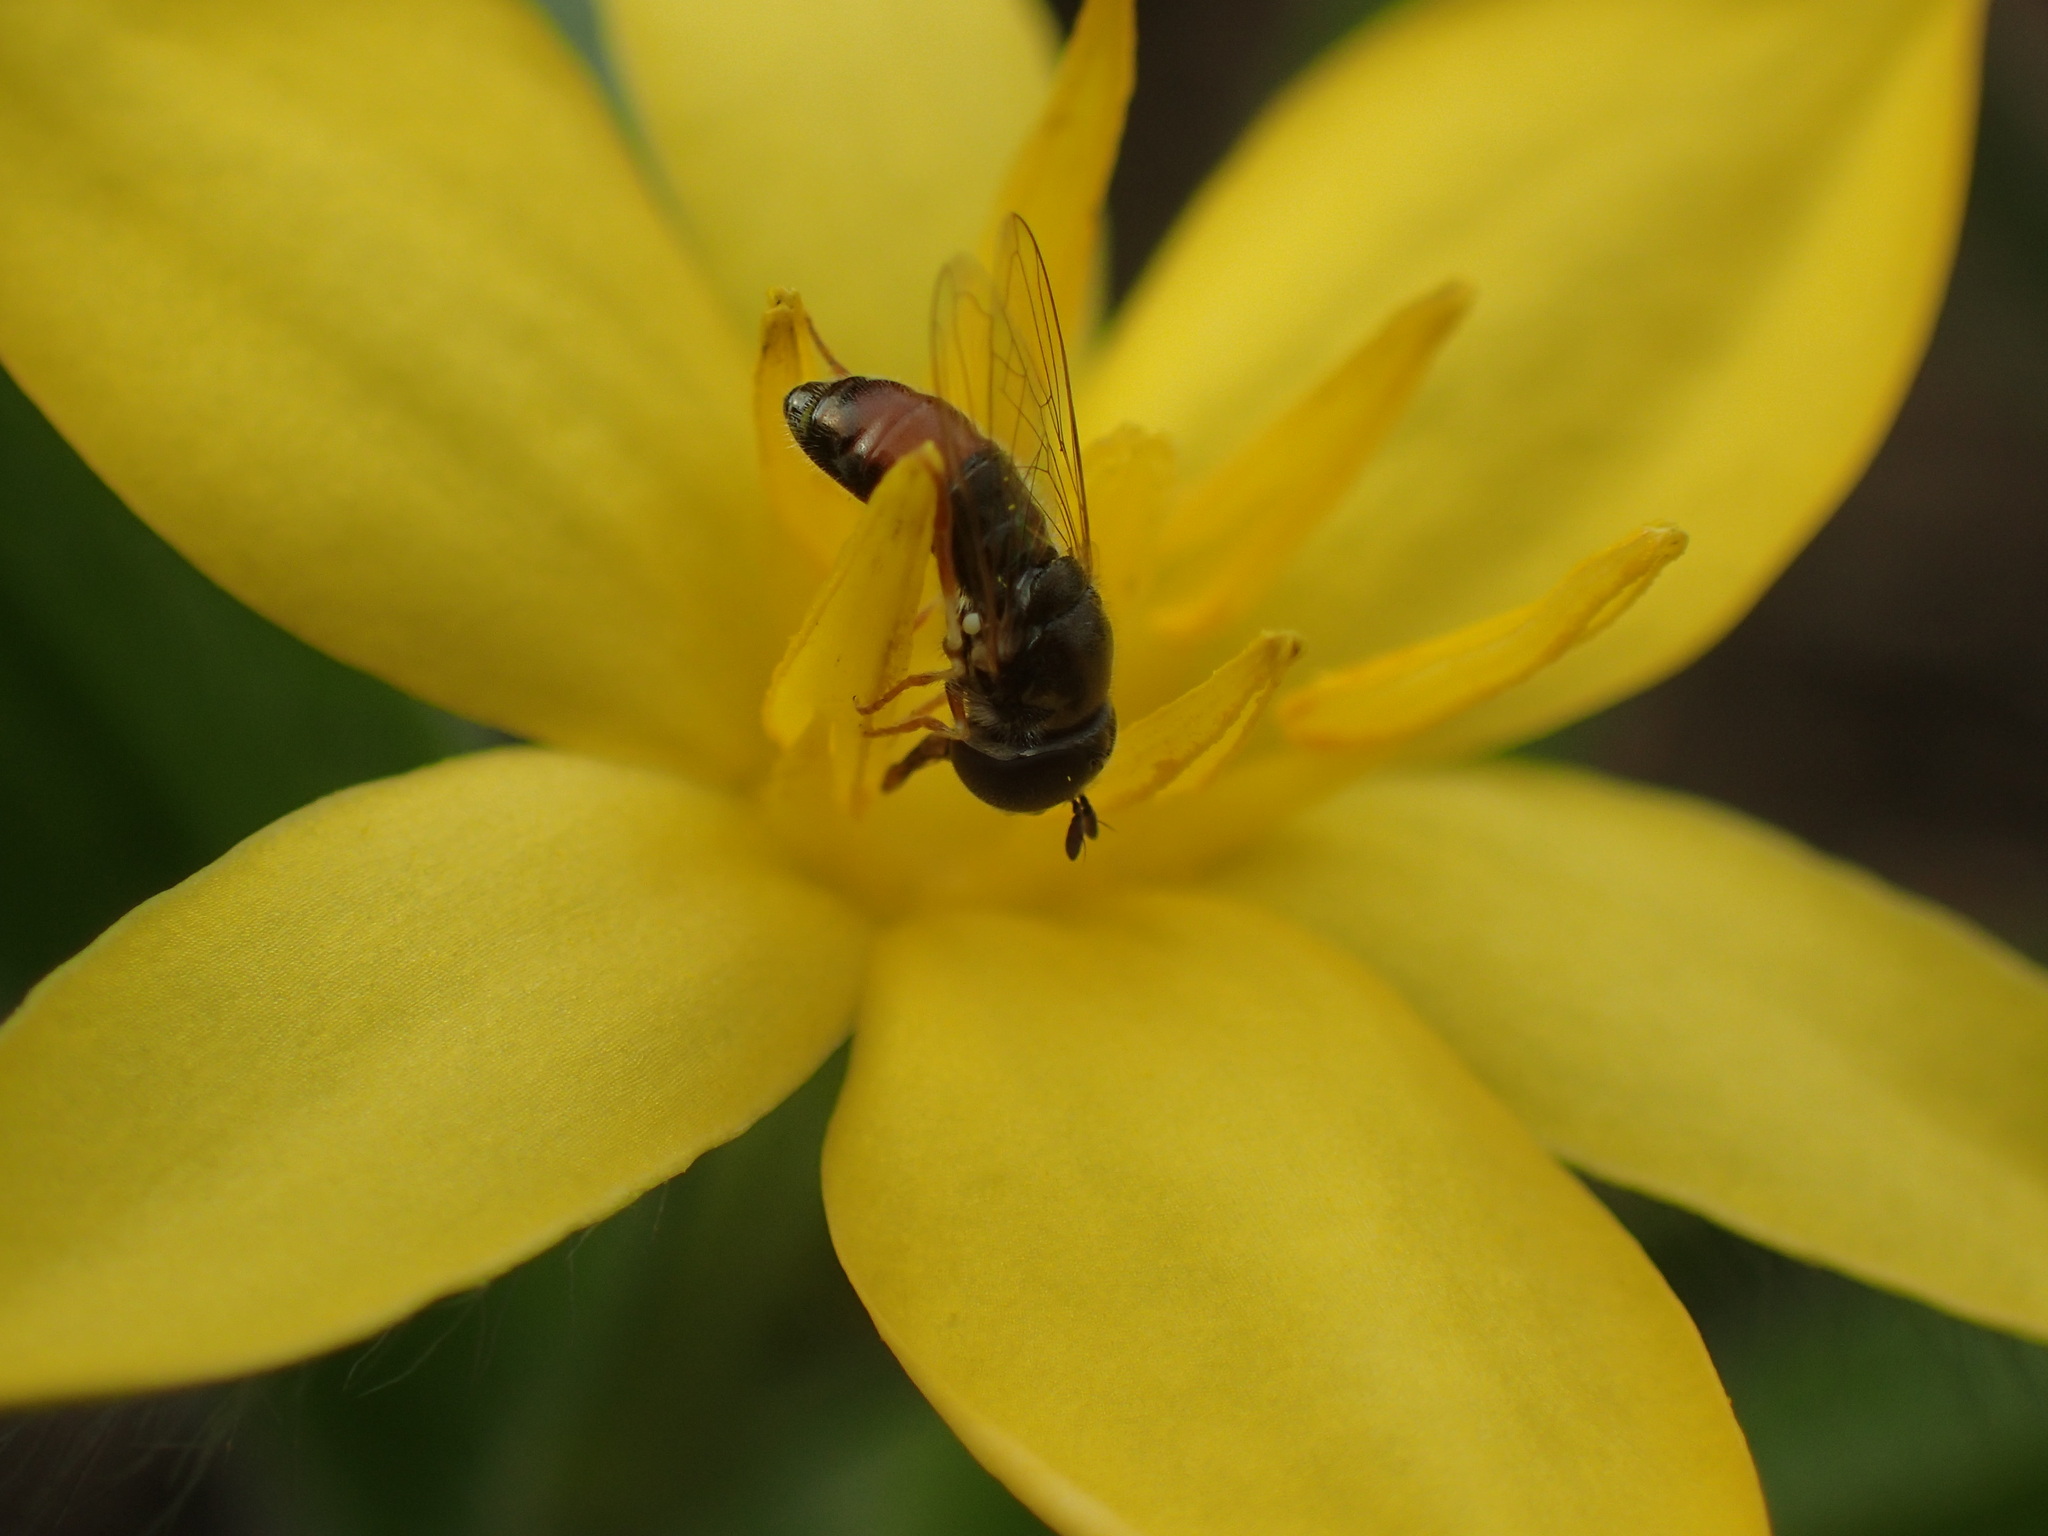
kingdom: Animalia
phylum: Arthropoda
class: Insecta
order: Diptera
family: Syrphidae
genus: Paragus
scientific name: Paragus haemorrhous
